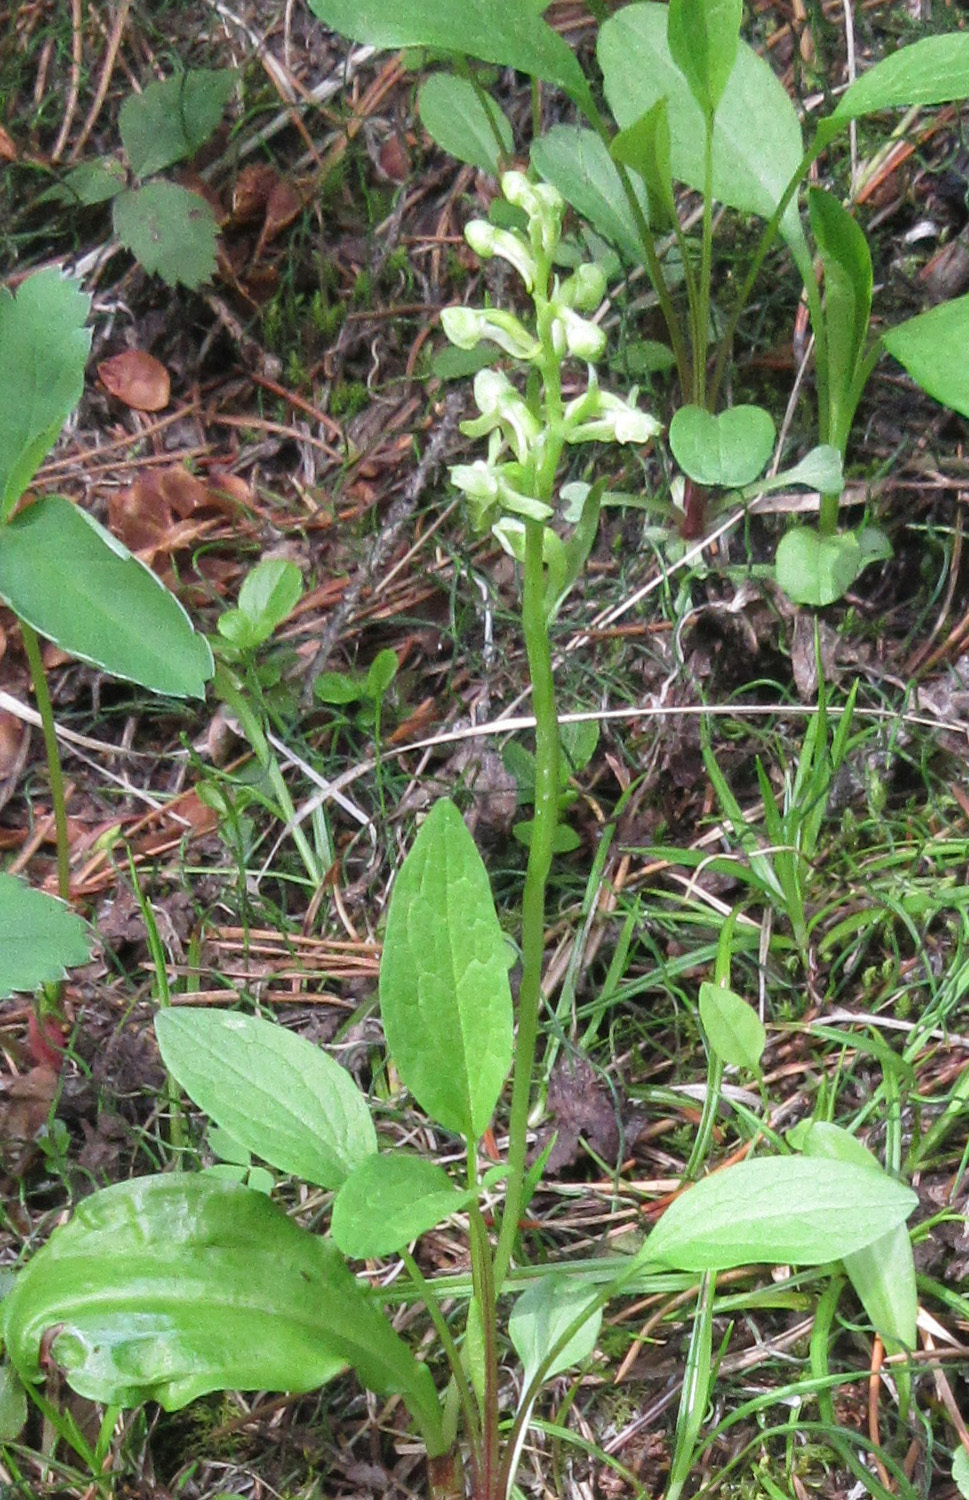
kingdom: Plantae
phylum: Tracheophyta
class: Liliopsida
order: Asparagales
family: Orchidaceae
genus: Platanthera
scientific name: Platanthera obtusata
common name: Blunt bog orchid
